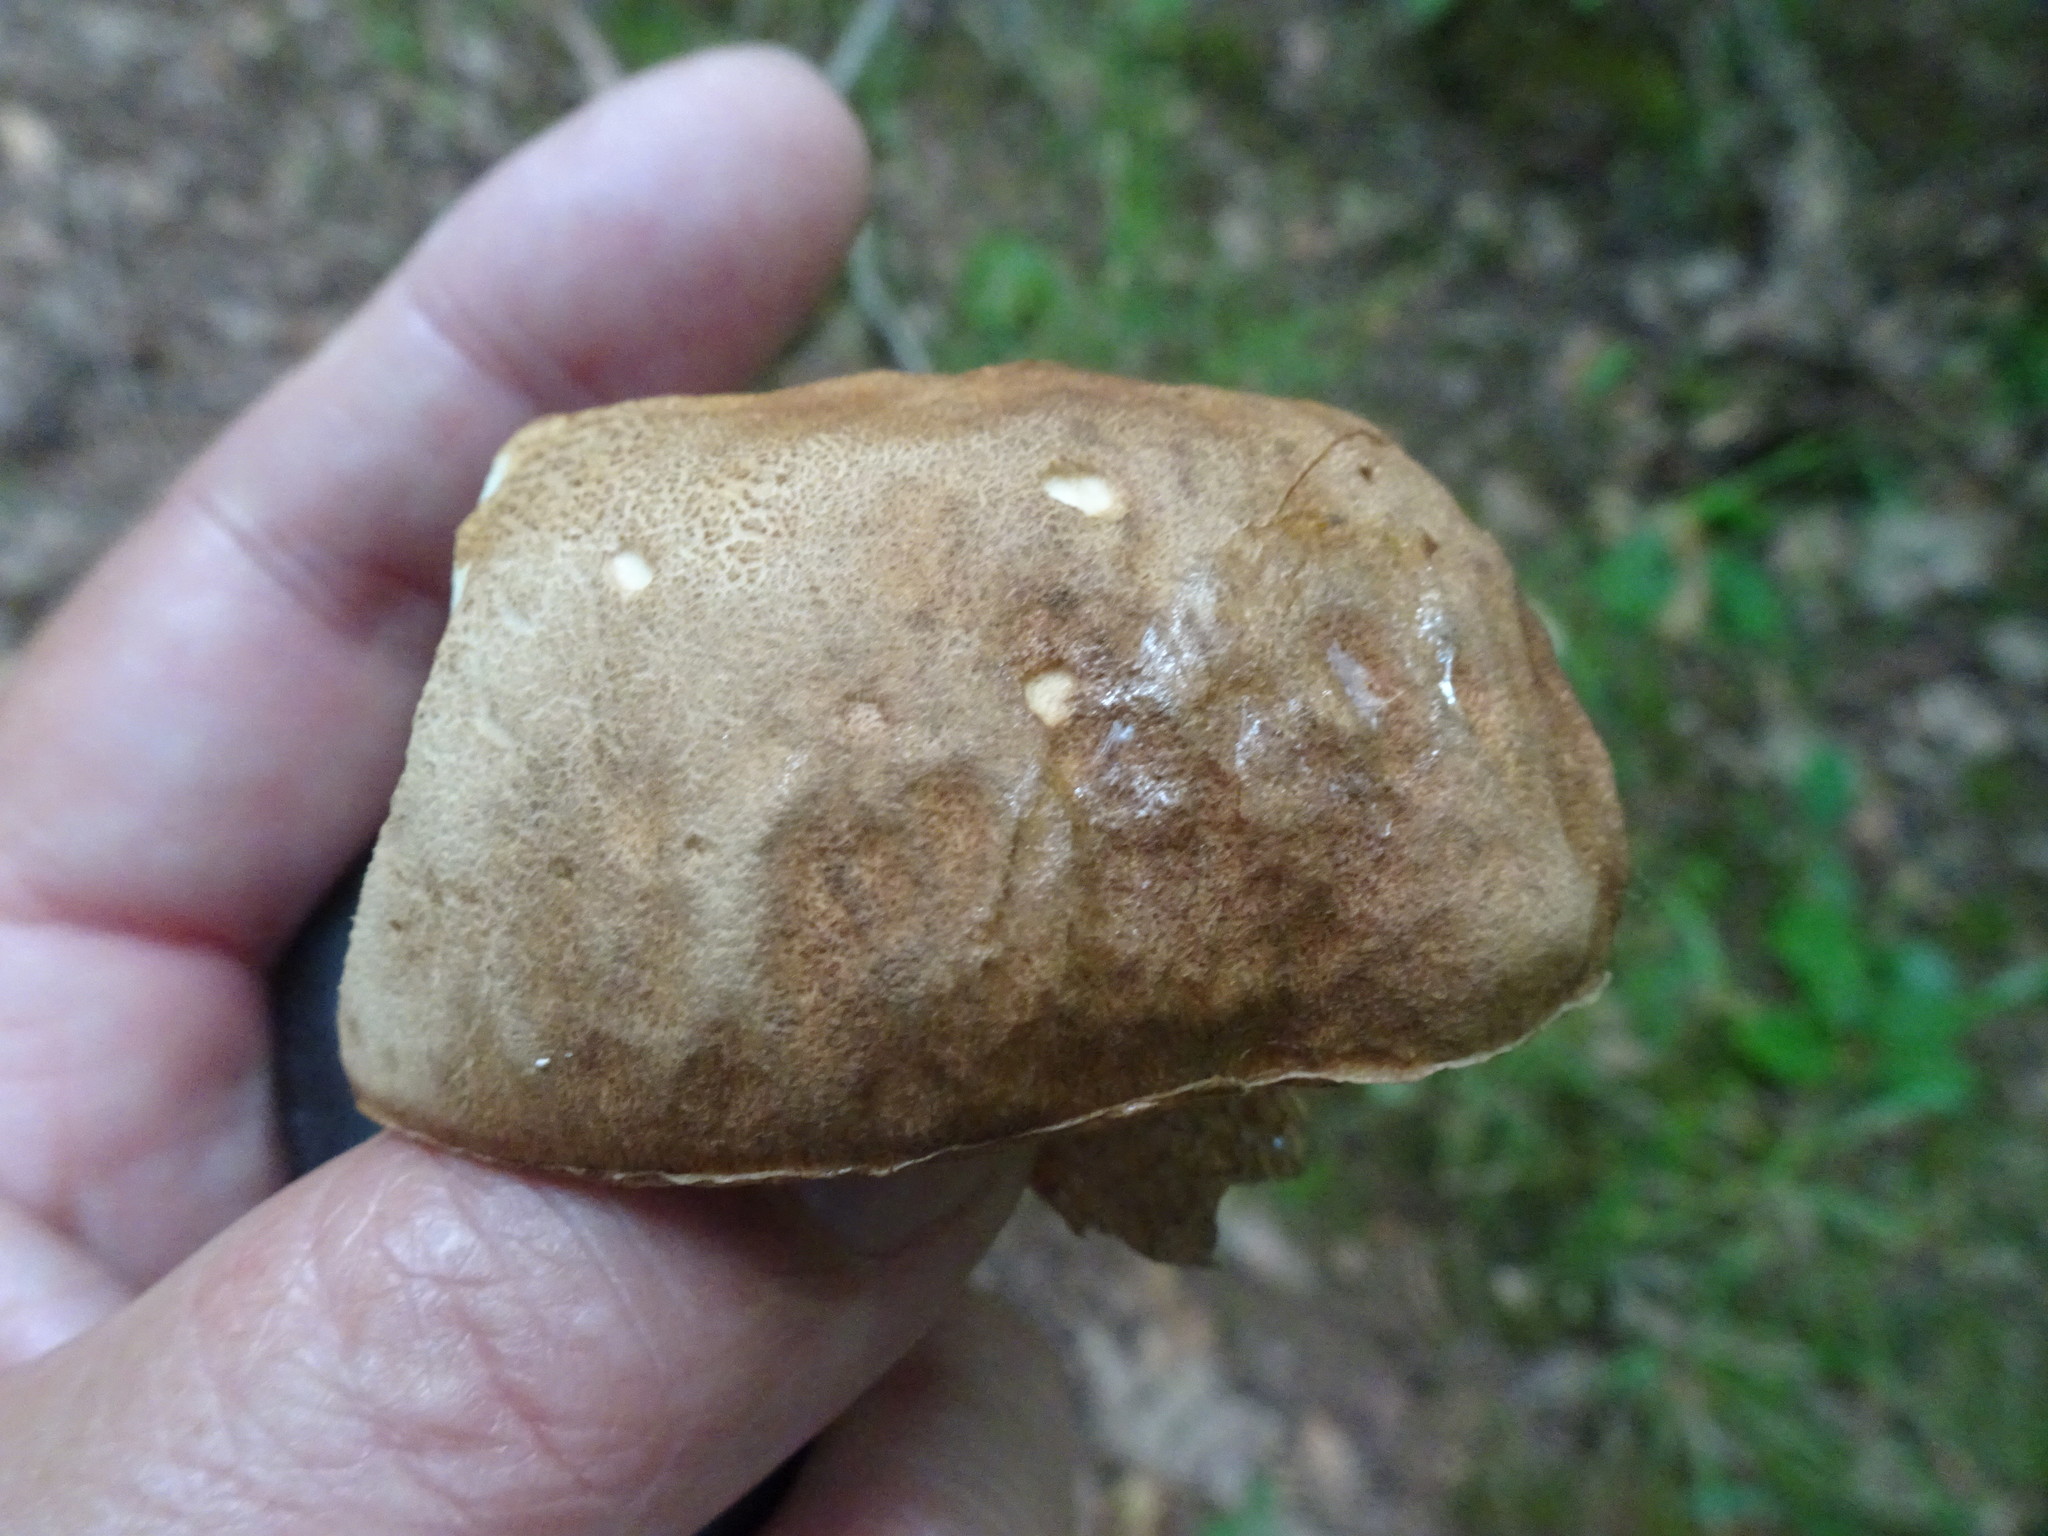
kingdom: Fungi
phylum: Basidiomycota
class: Agaricomycetes
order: Boletales
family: Boletaceae
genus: Boletus
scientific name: Boletus reticulatus
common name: Summer bolete
